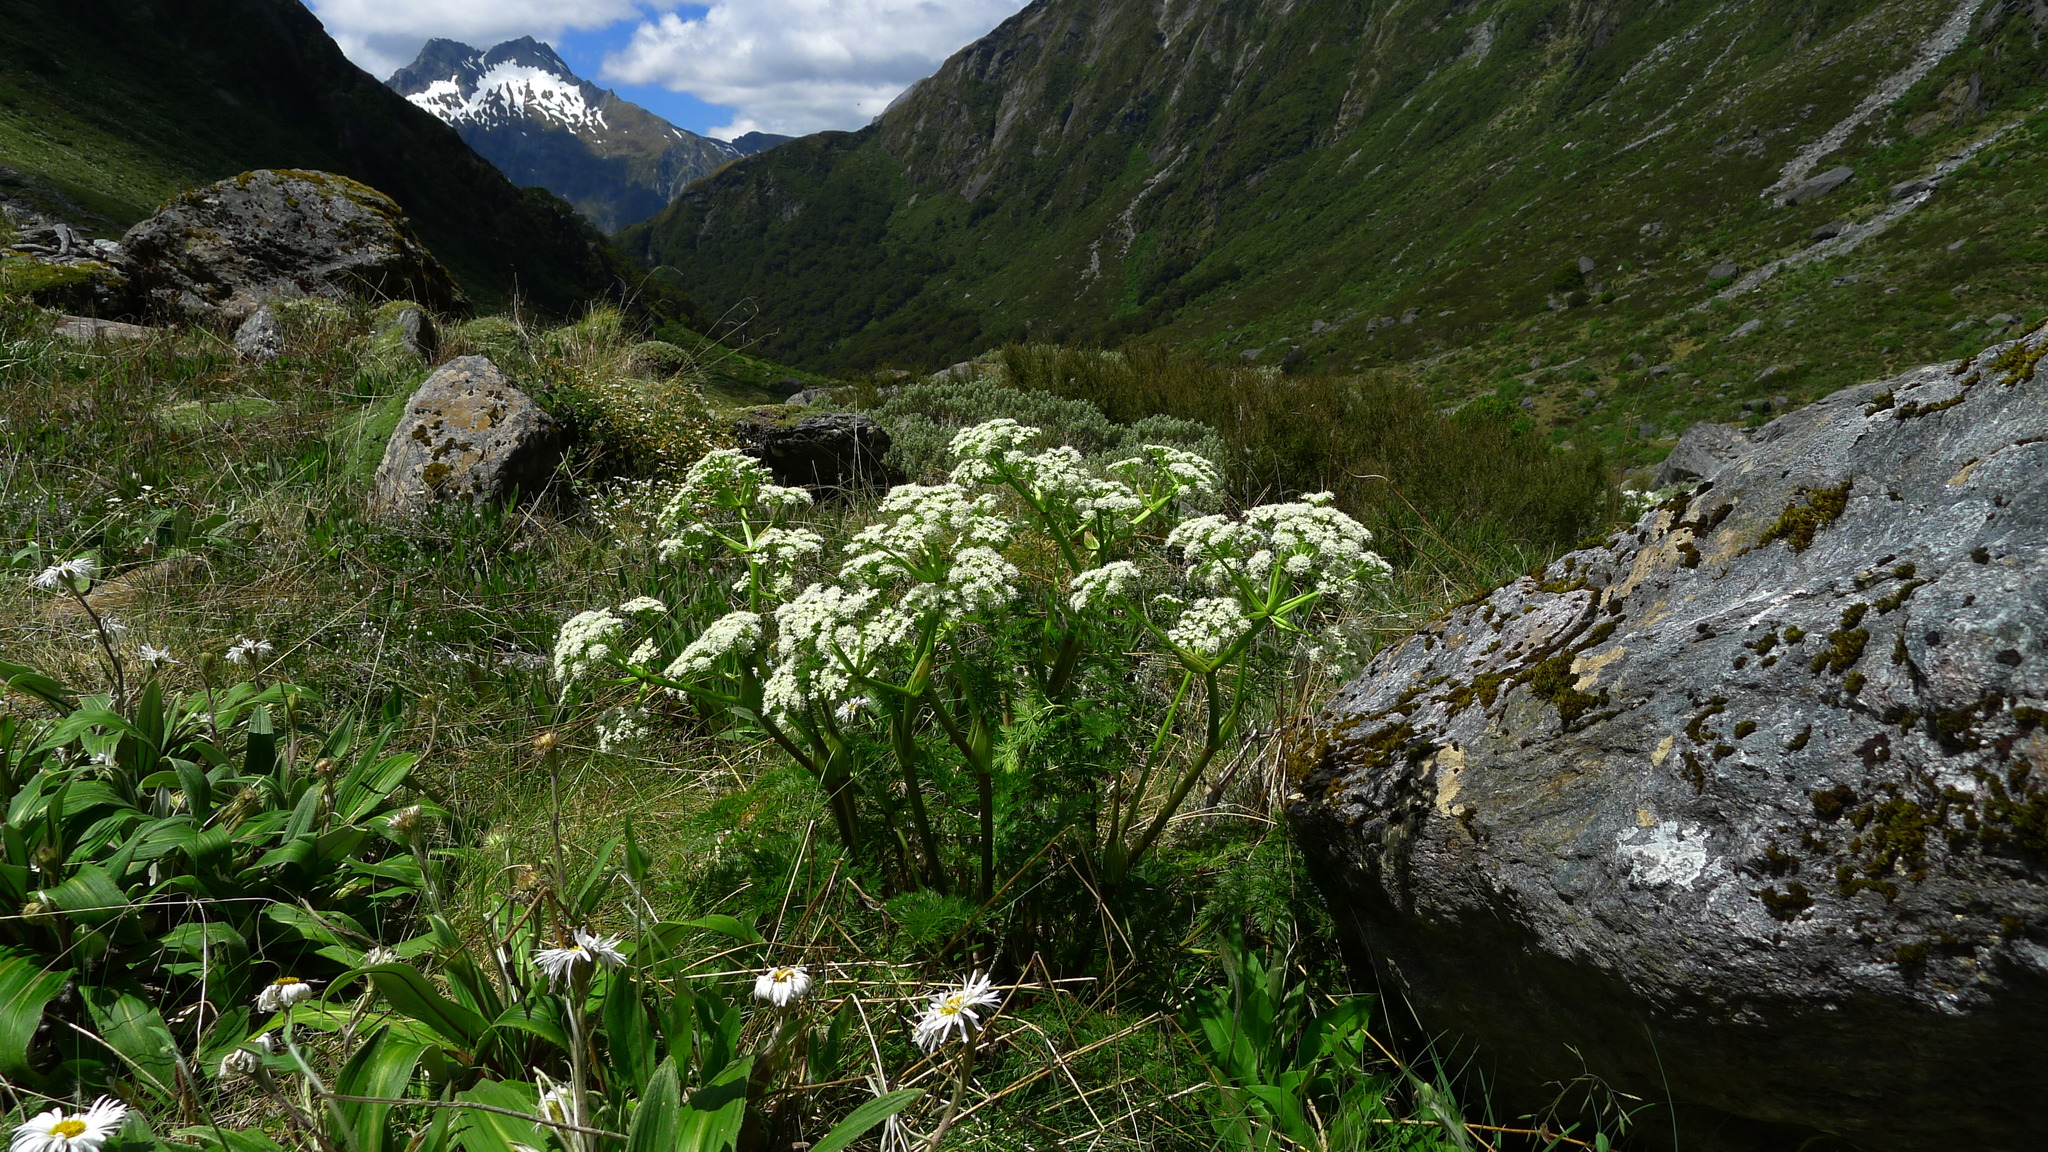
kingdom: Plantae
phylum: Tracheophyta
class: Magnoliopsida
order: Apiales
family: Apiaceae
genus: Anisotome
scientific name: Anisotome haastii
